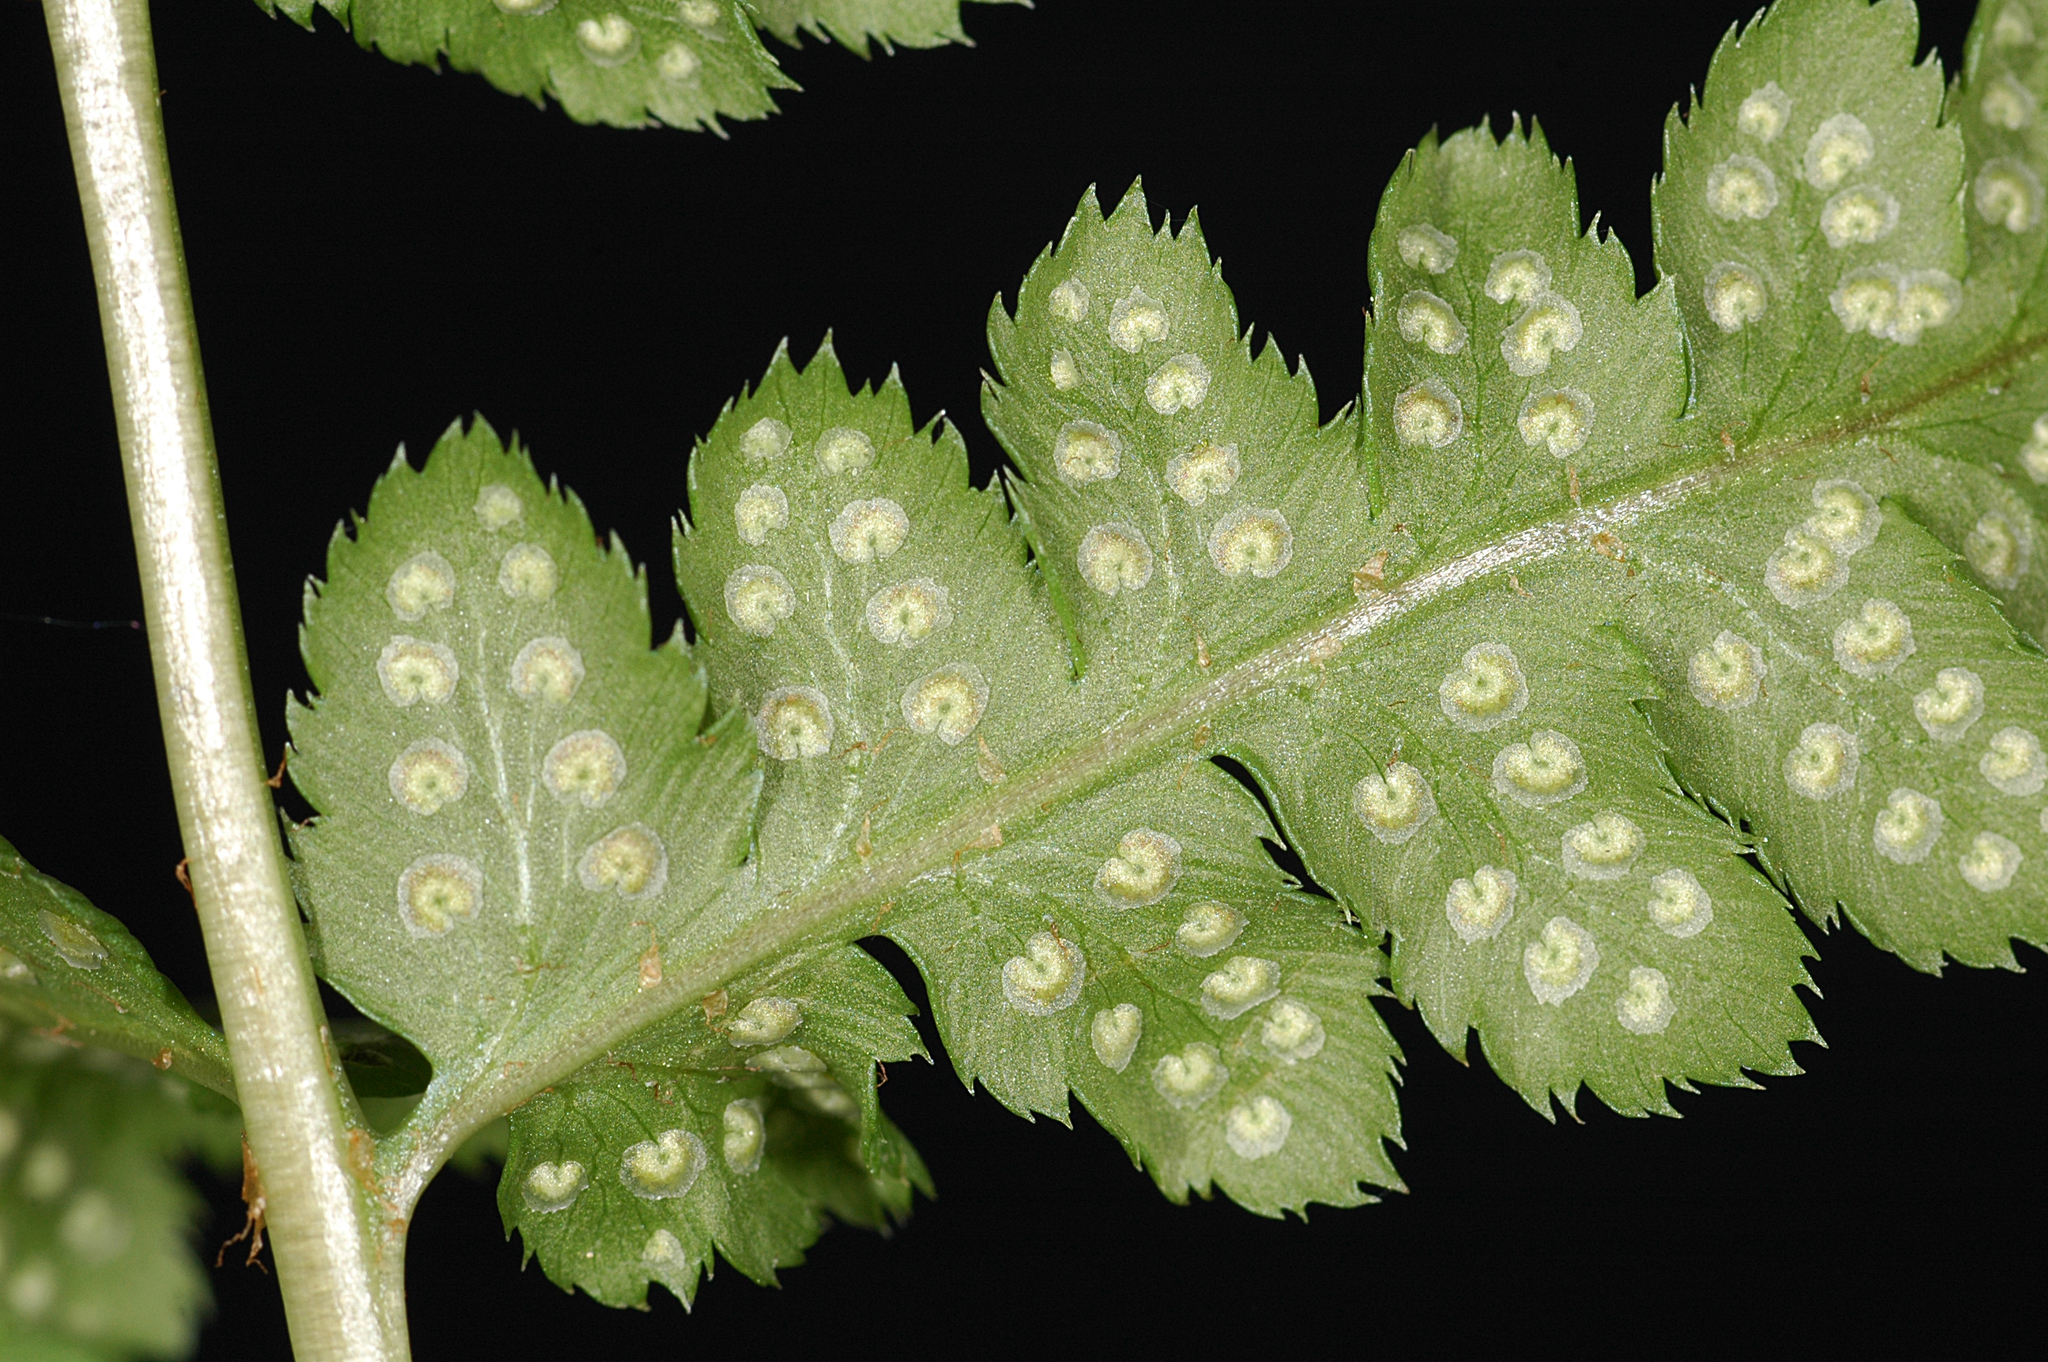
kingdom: Plantae
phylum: Tracheophyta
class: Polypodiopsida
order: Polypodiales
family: Dryopteridaceae
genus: Dryopteris
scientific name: Dryopteris cristata
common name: Crested wood fern
